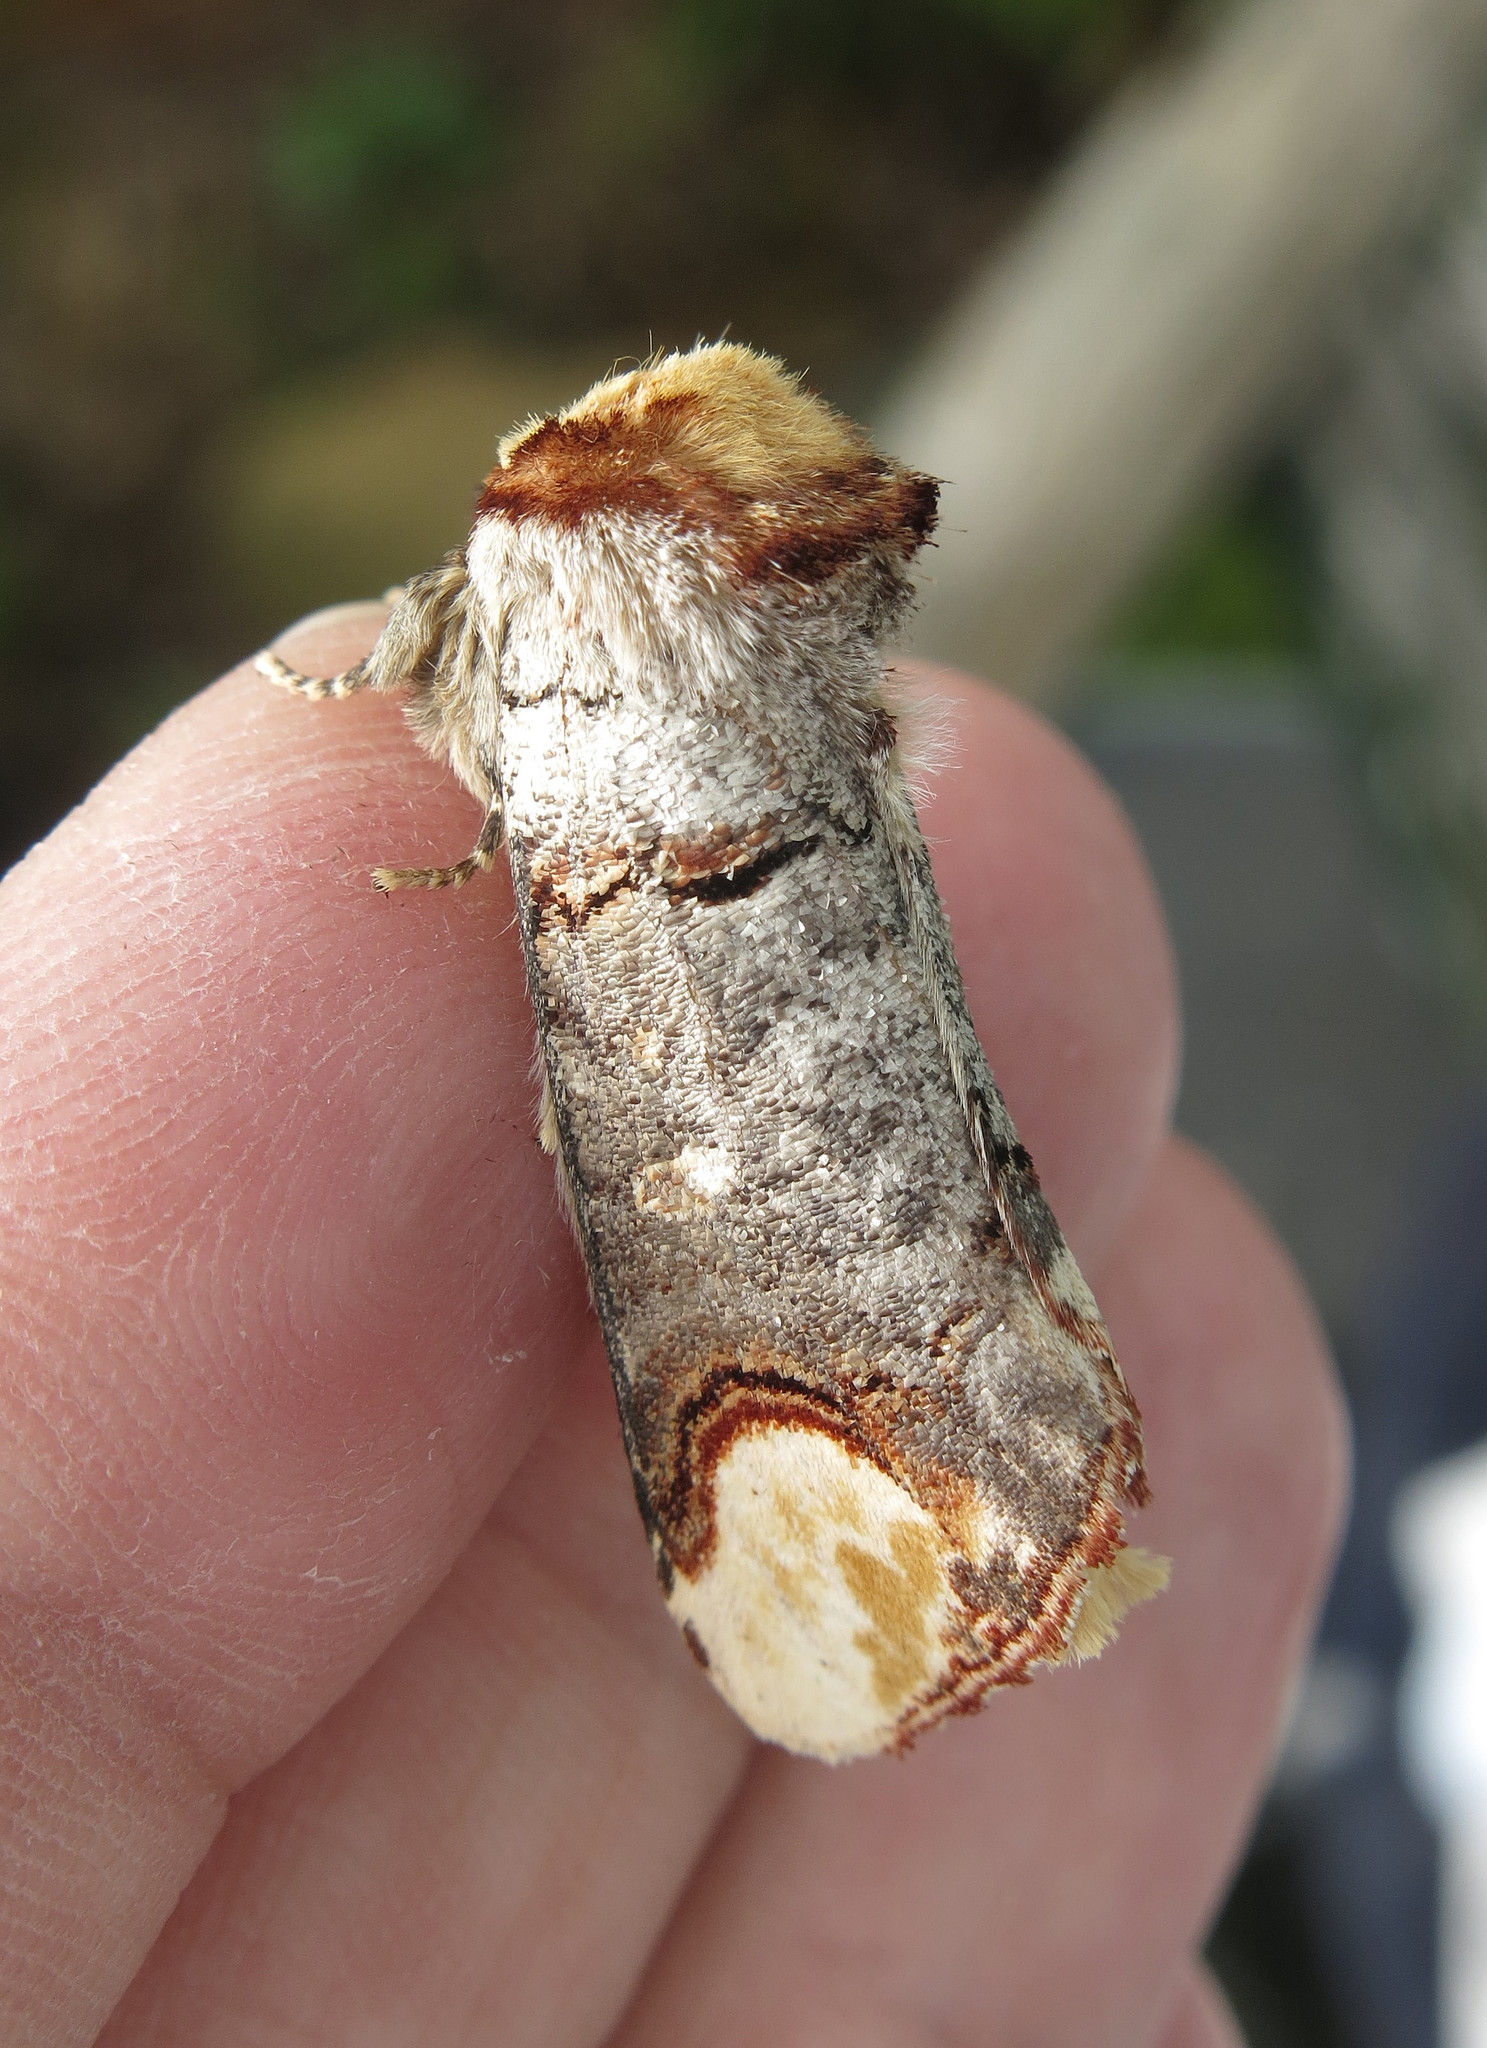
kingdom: Animalia
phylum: Arthropoda
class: Insecta
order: Lepidoptera
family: Notodontidae
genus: Phalera
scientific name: Phalera bucephala
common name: Buff-tip
